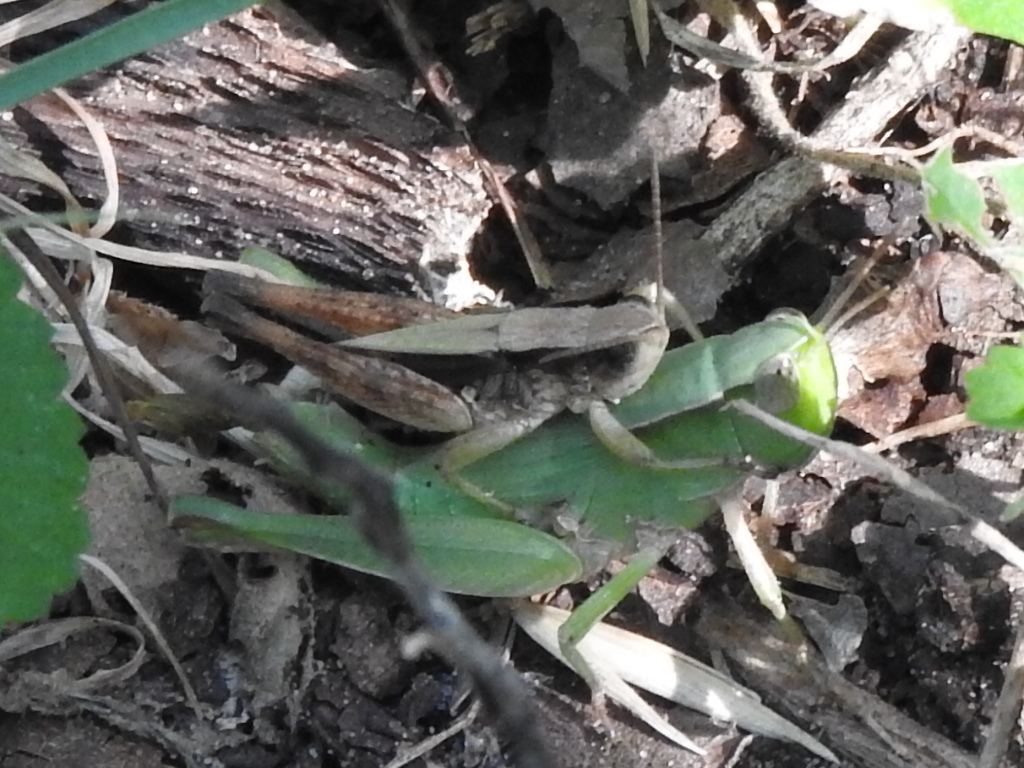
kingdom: Animalia
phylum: Arthropoda
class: Insecta
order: Orthoptera
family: Acrididae
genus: Dichromorpha
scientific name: Dichromorpha viridis
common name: Short-winged green grasshopper
